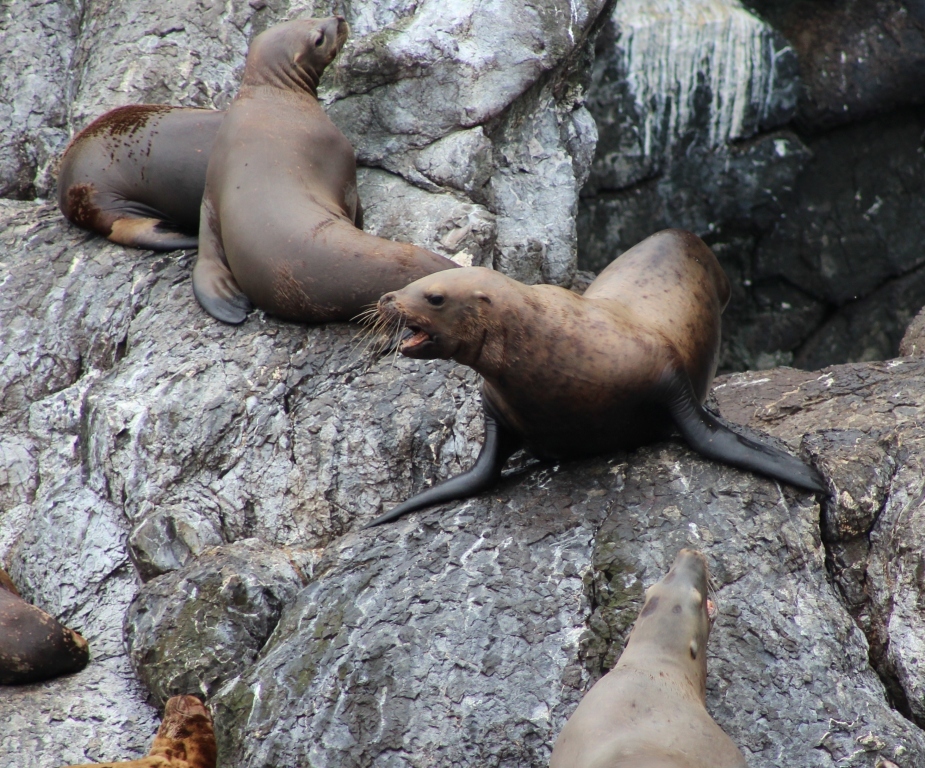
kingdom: Animalia
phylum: Chordata
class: Mammalia
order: Carnivora
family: Otariidae
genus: Eumetopias
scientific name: Eumetopias jubatus
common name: Steller sea lion
